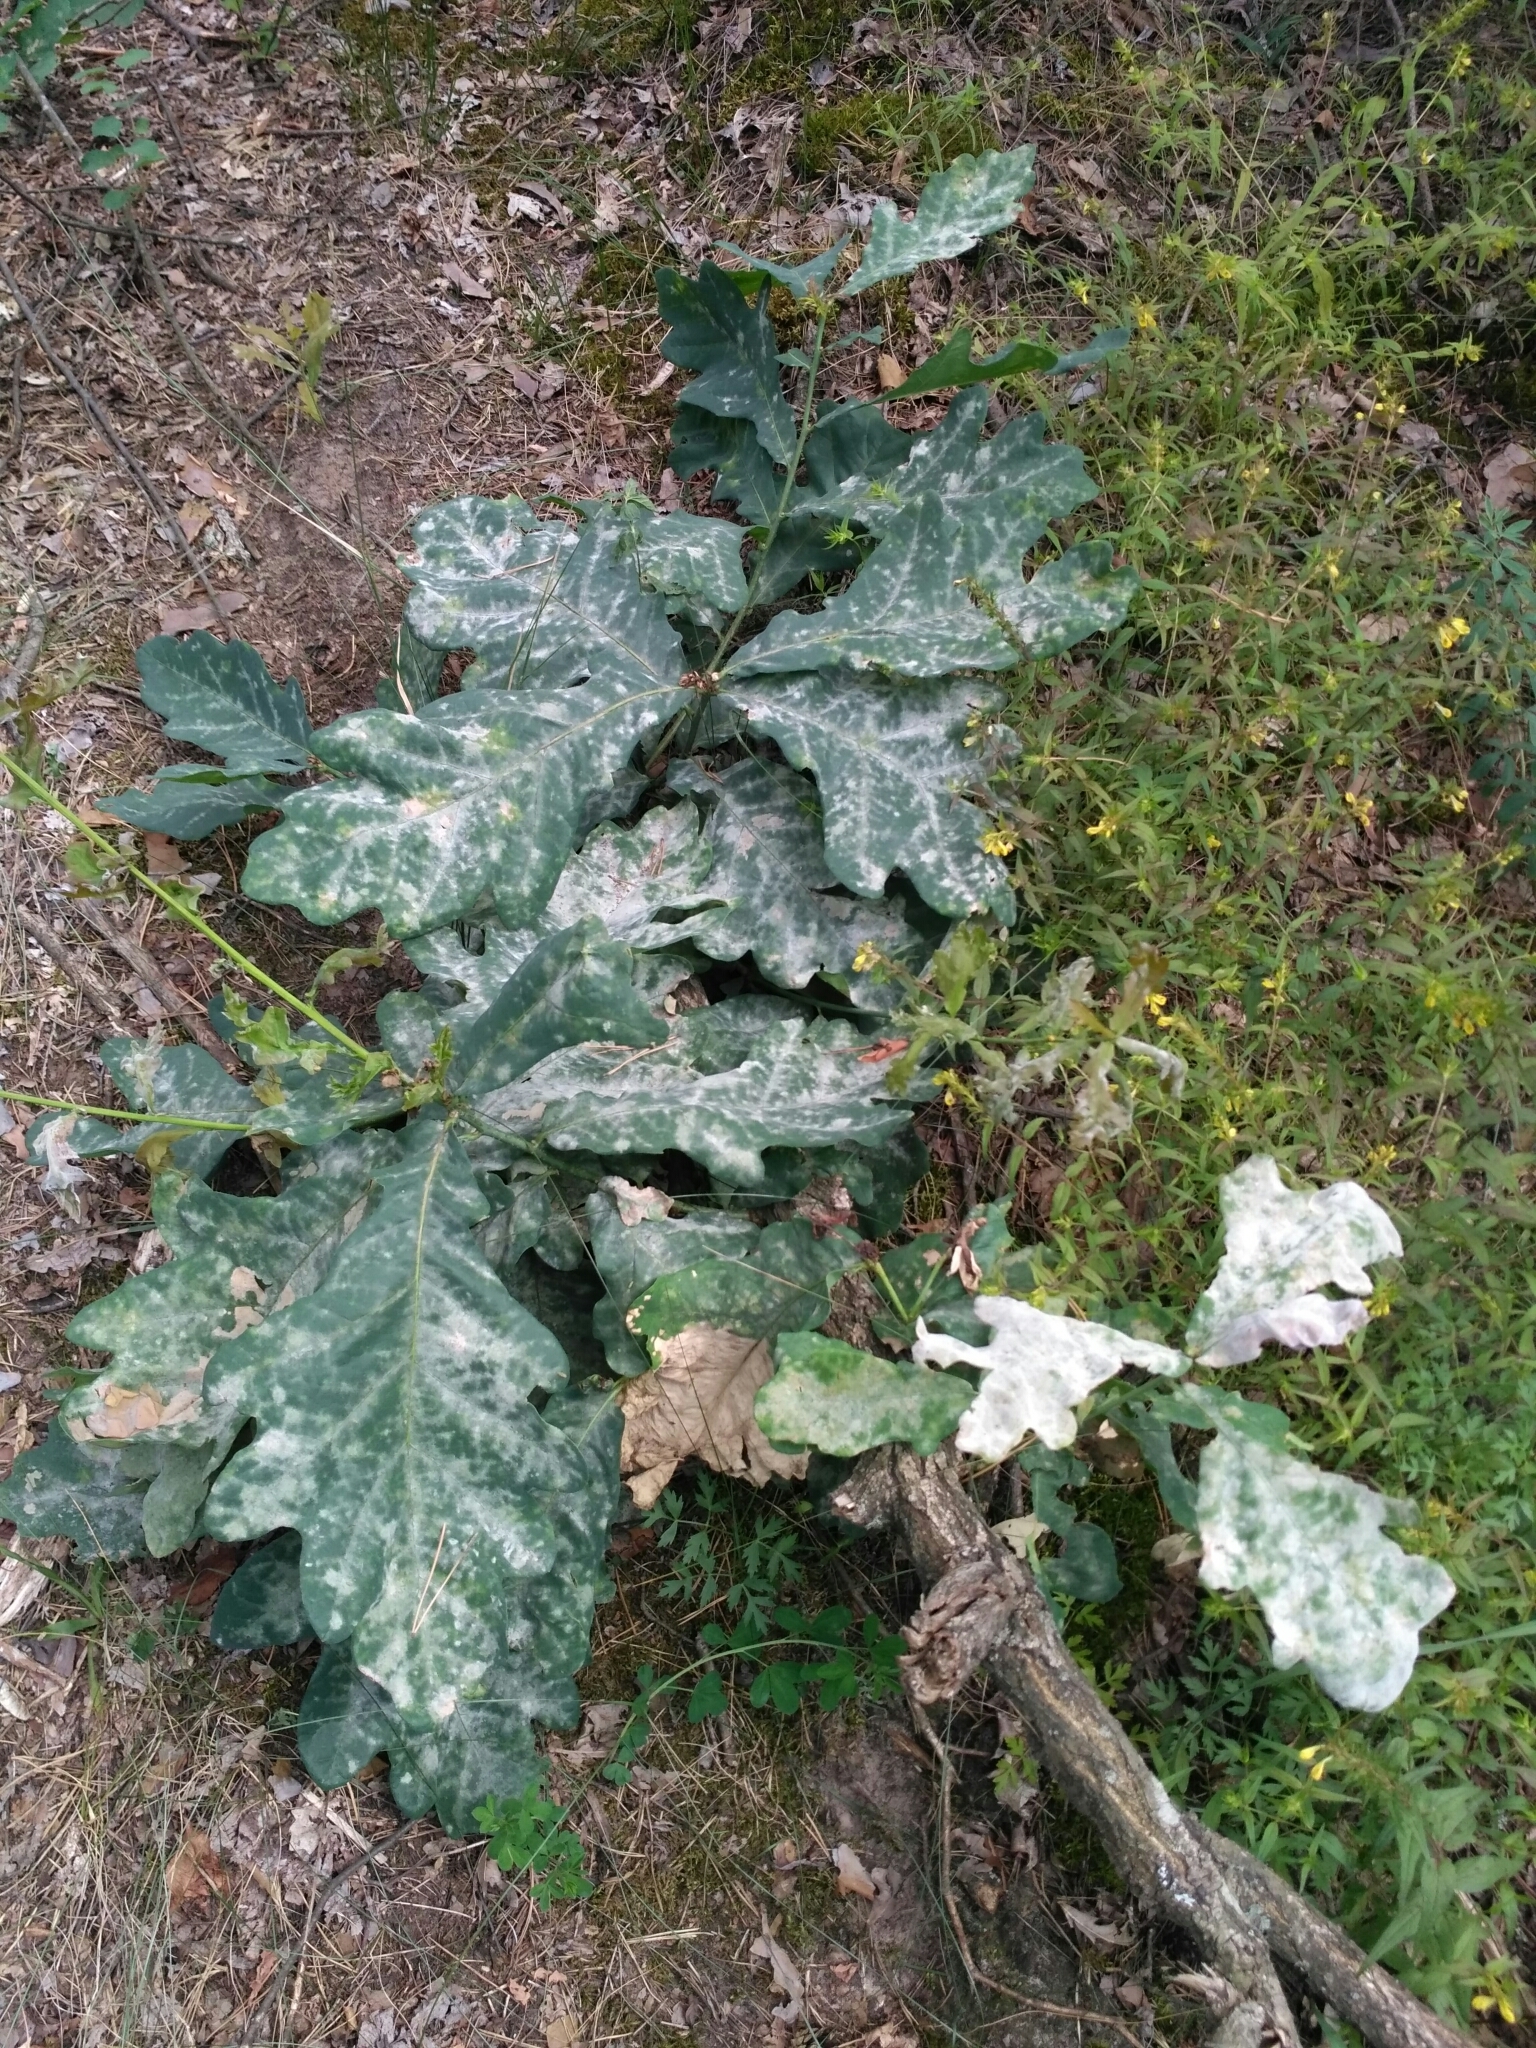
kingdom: Fungi
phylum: Ascomycota
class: Leotiomycetes
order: Helotiales
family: Erysiphaceae
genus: Erysiphe
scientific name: Erysiphe alphitoides
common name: Oak mildew
